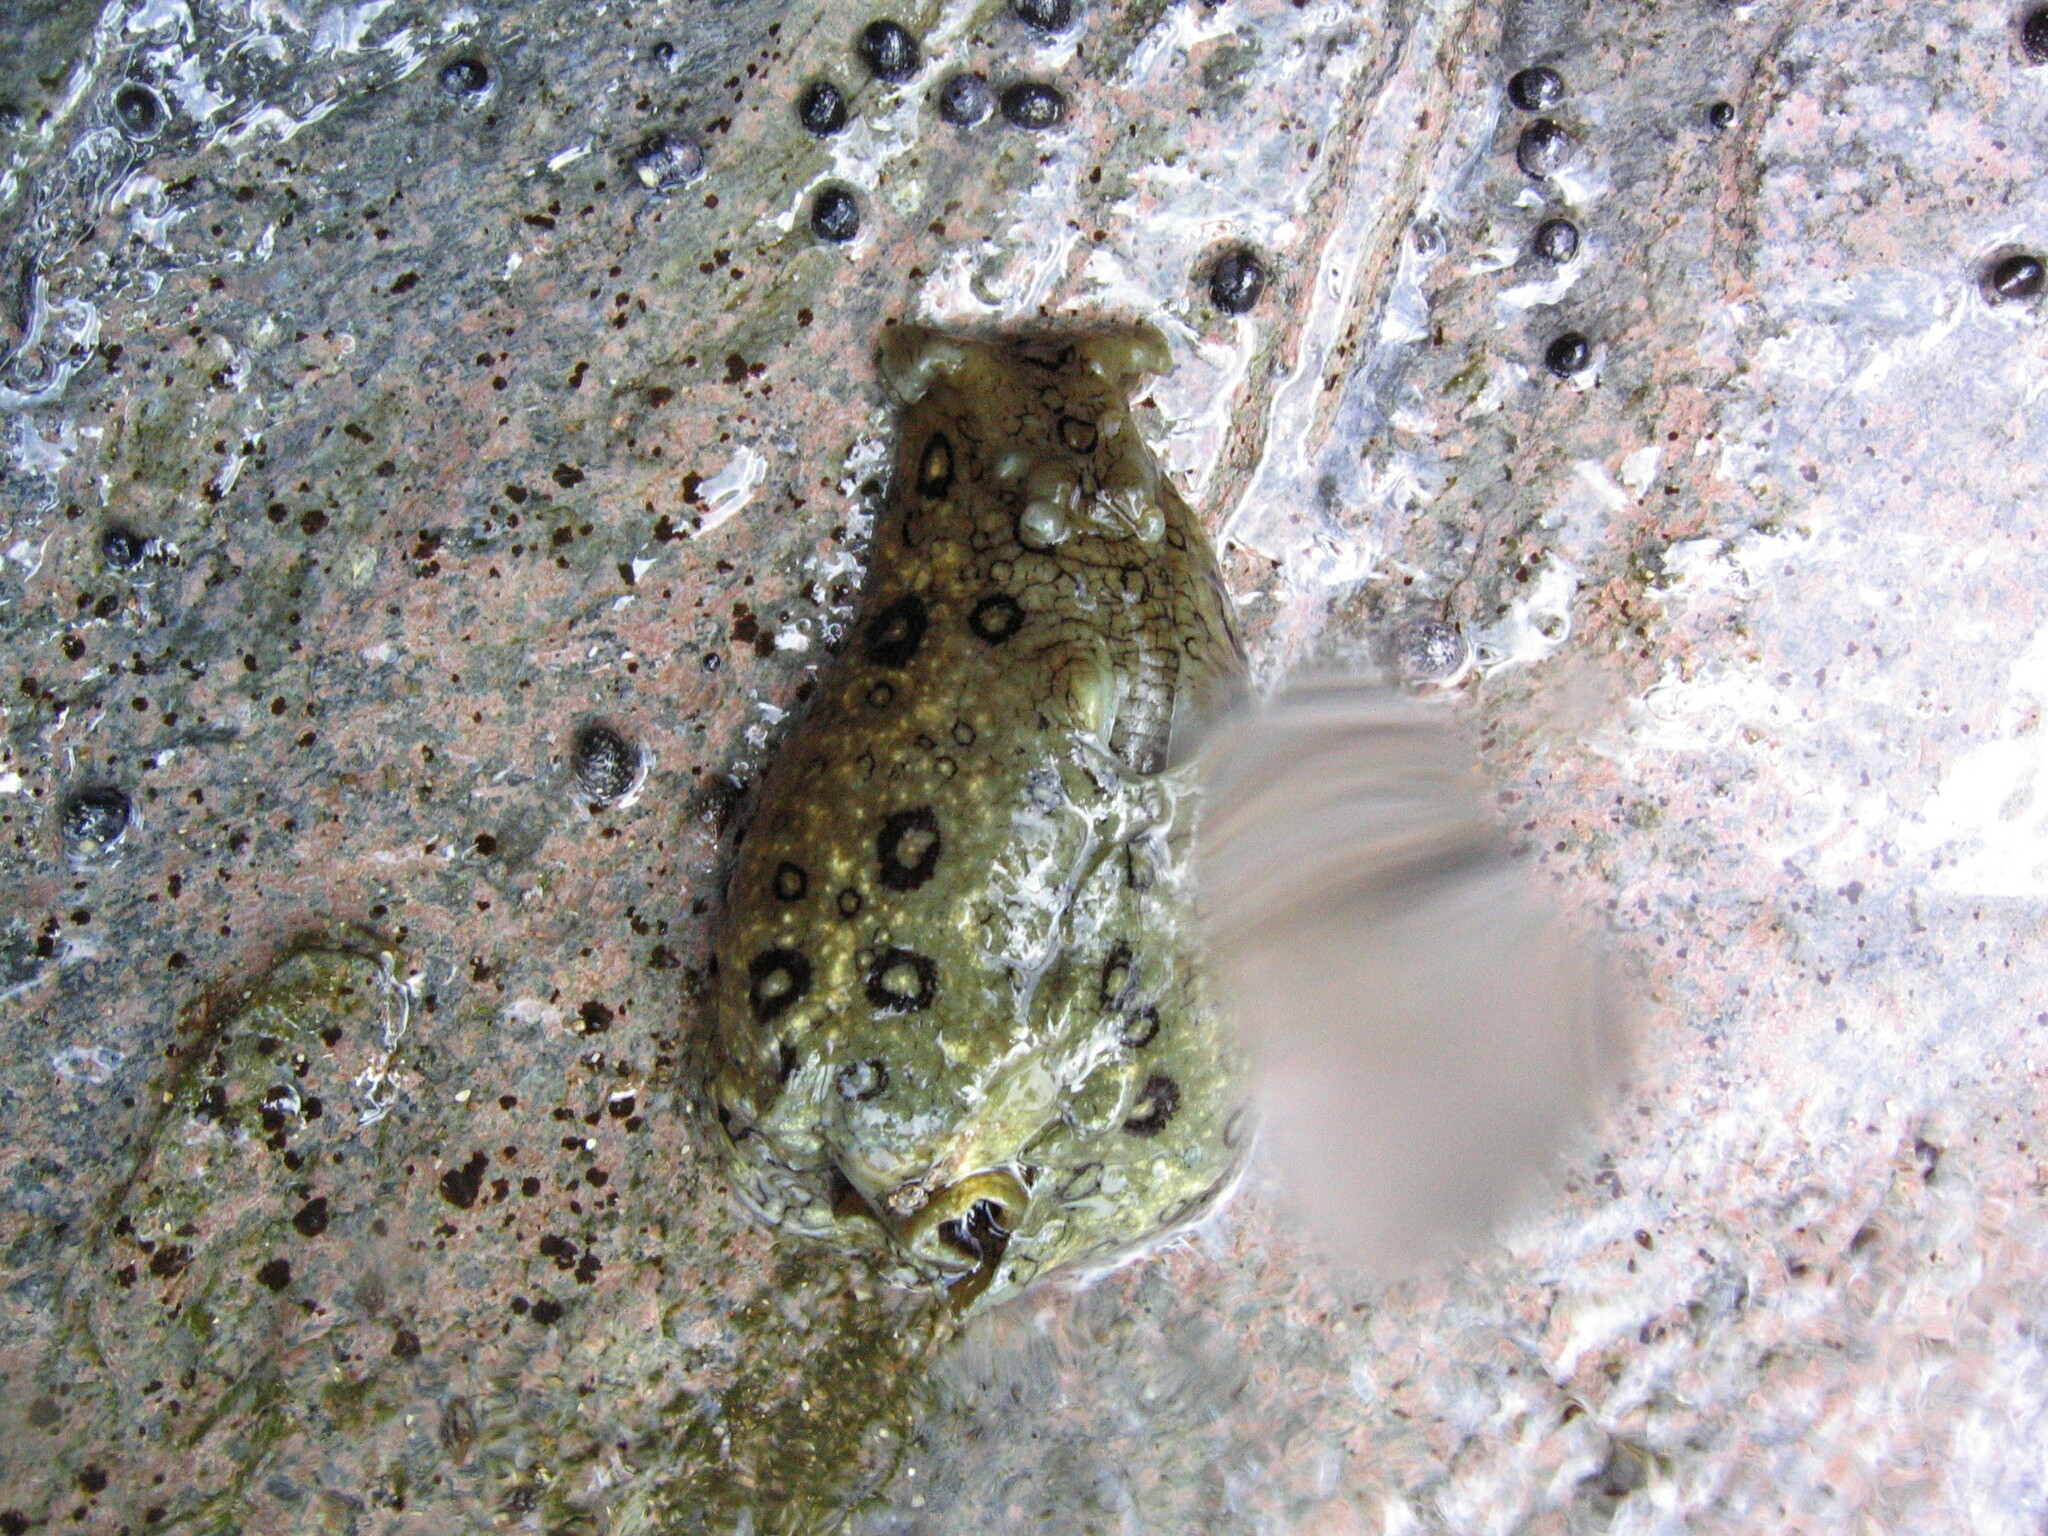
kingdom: Animalia
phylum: Mollusca
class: Gastropoda
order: Aplysiida
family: Aplysiidae
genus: Aplysia
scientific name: Aplysia dactylomela
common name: Large-spotted sea hare
